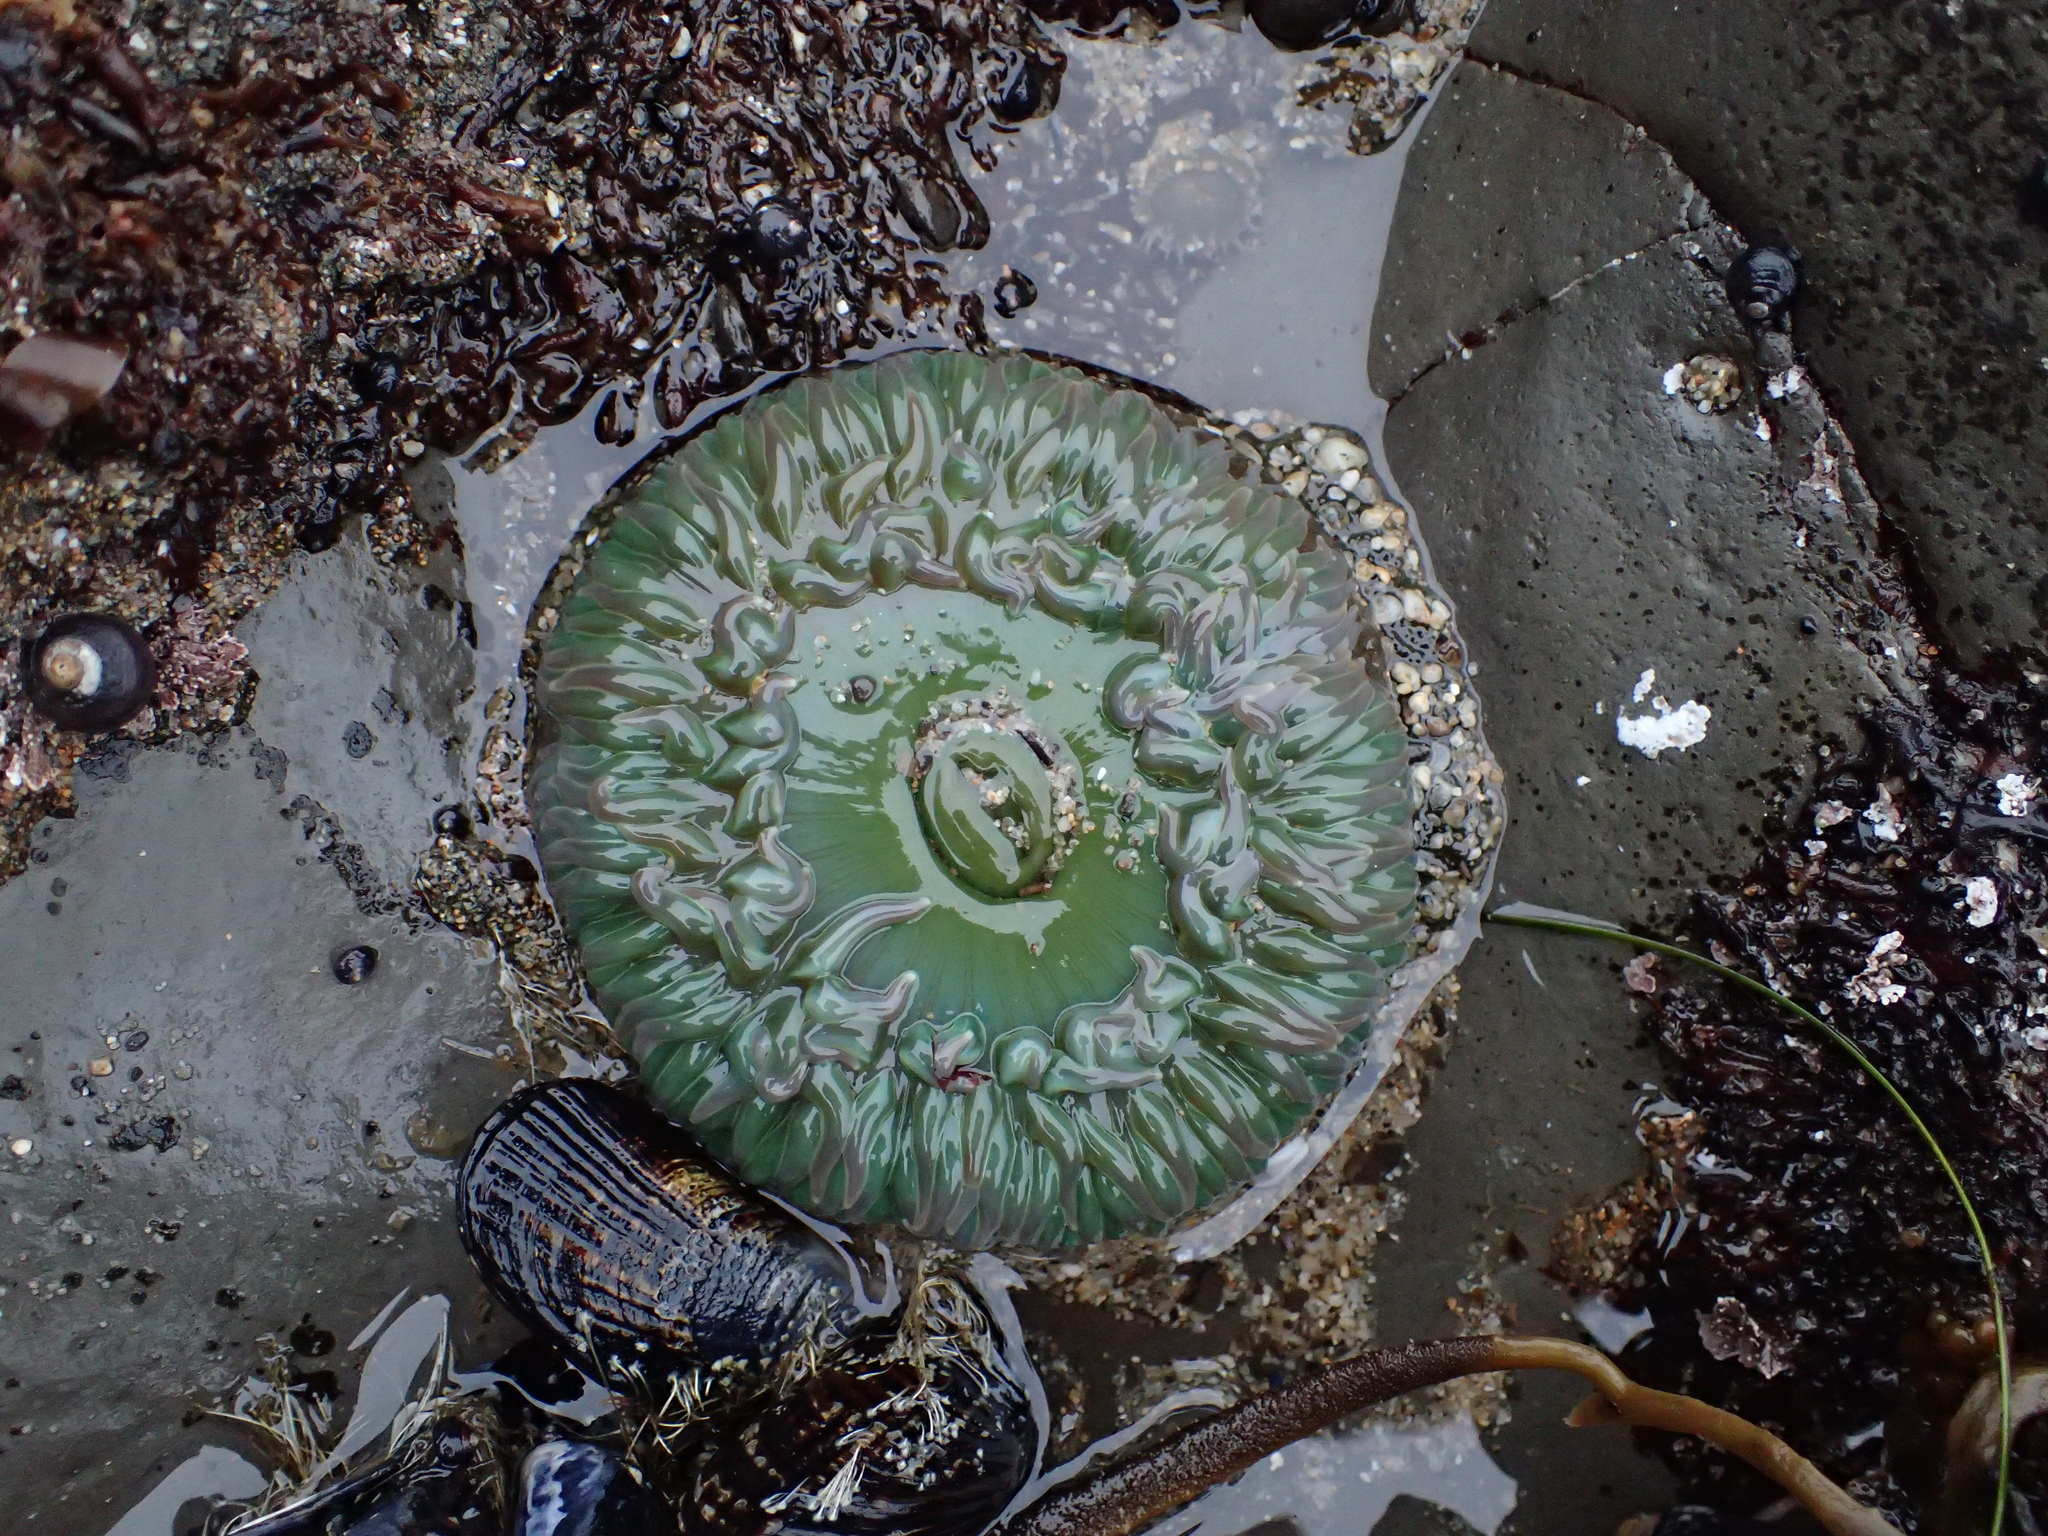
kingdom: Animalia
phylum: Cnidaria
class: Anthozoa
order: Actiniaria
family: Actiniidae
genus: Anthopleura
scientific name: Anthopleura xanthogrammica
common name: Giant green anemone
